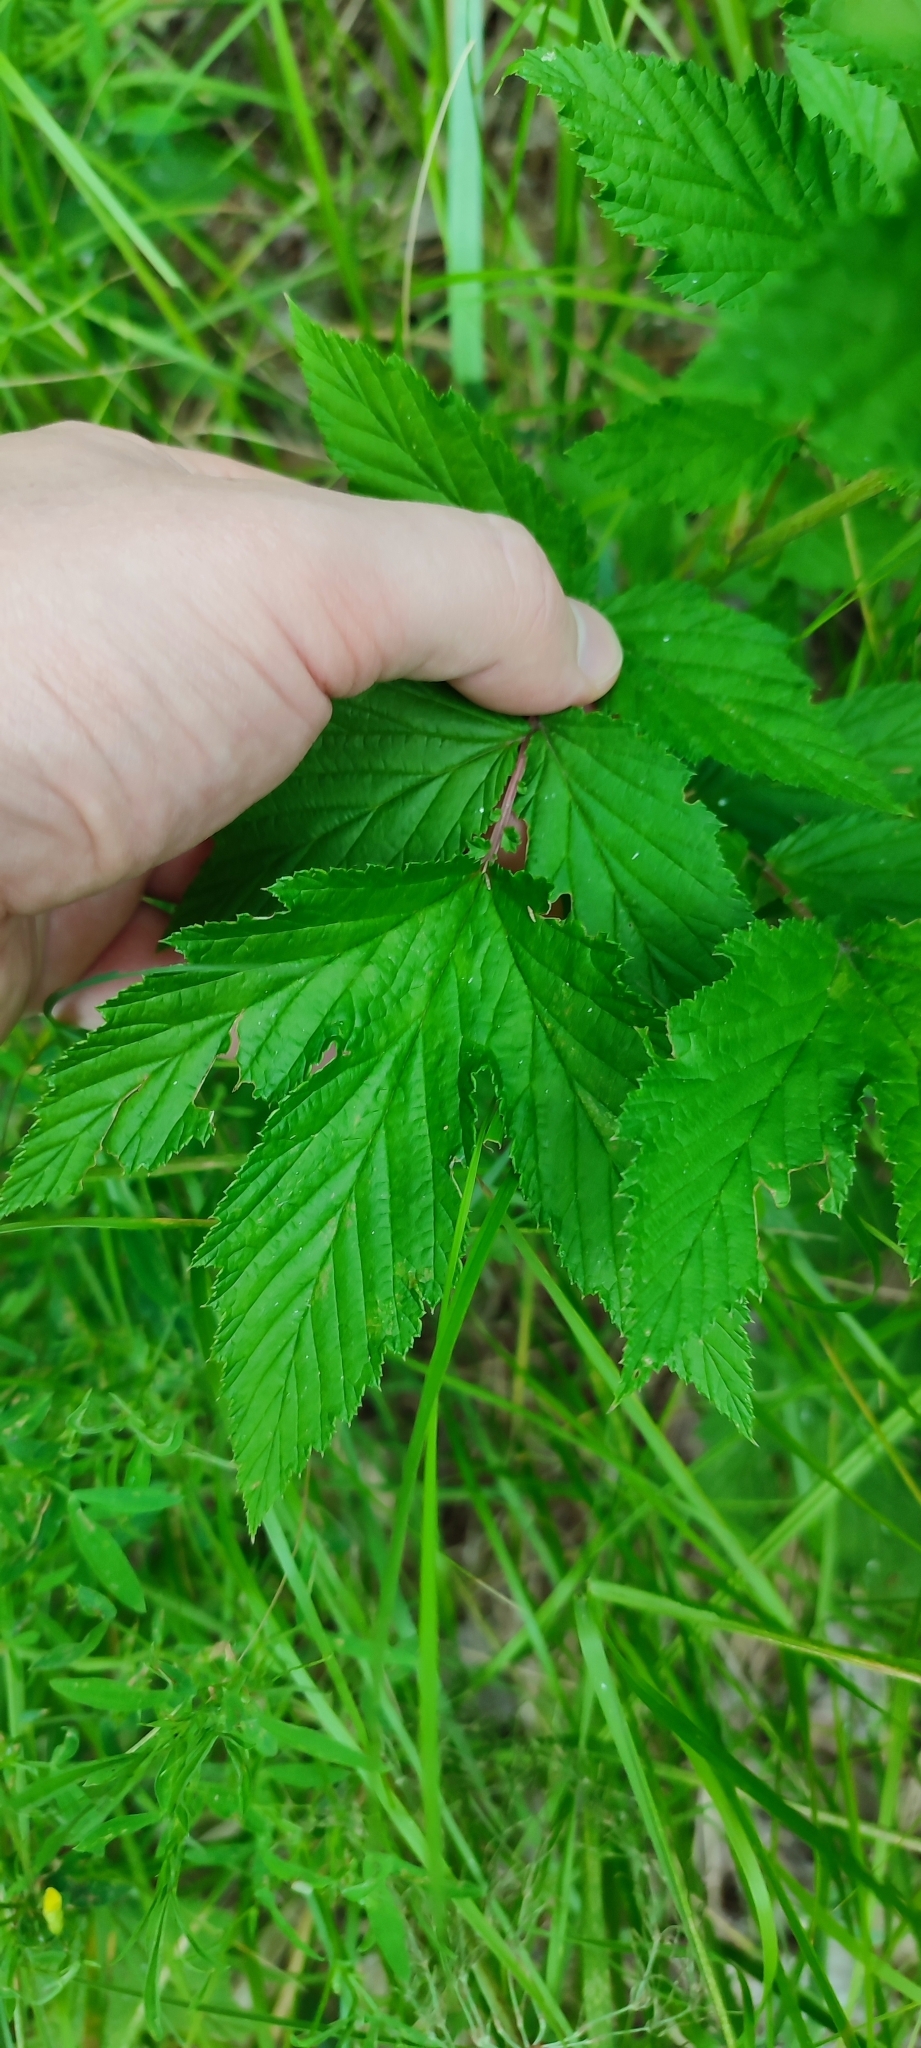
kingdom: Plantae
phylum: Tracheophyta
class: Magnoliopsida
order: Rosales
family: Rosaceae
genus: Filipendula
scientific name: Filipendula ulmaria
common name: Meadowsweet
